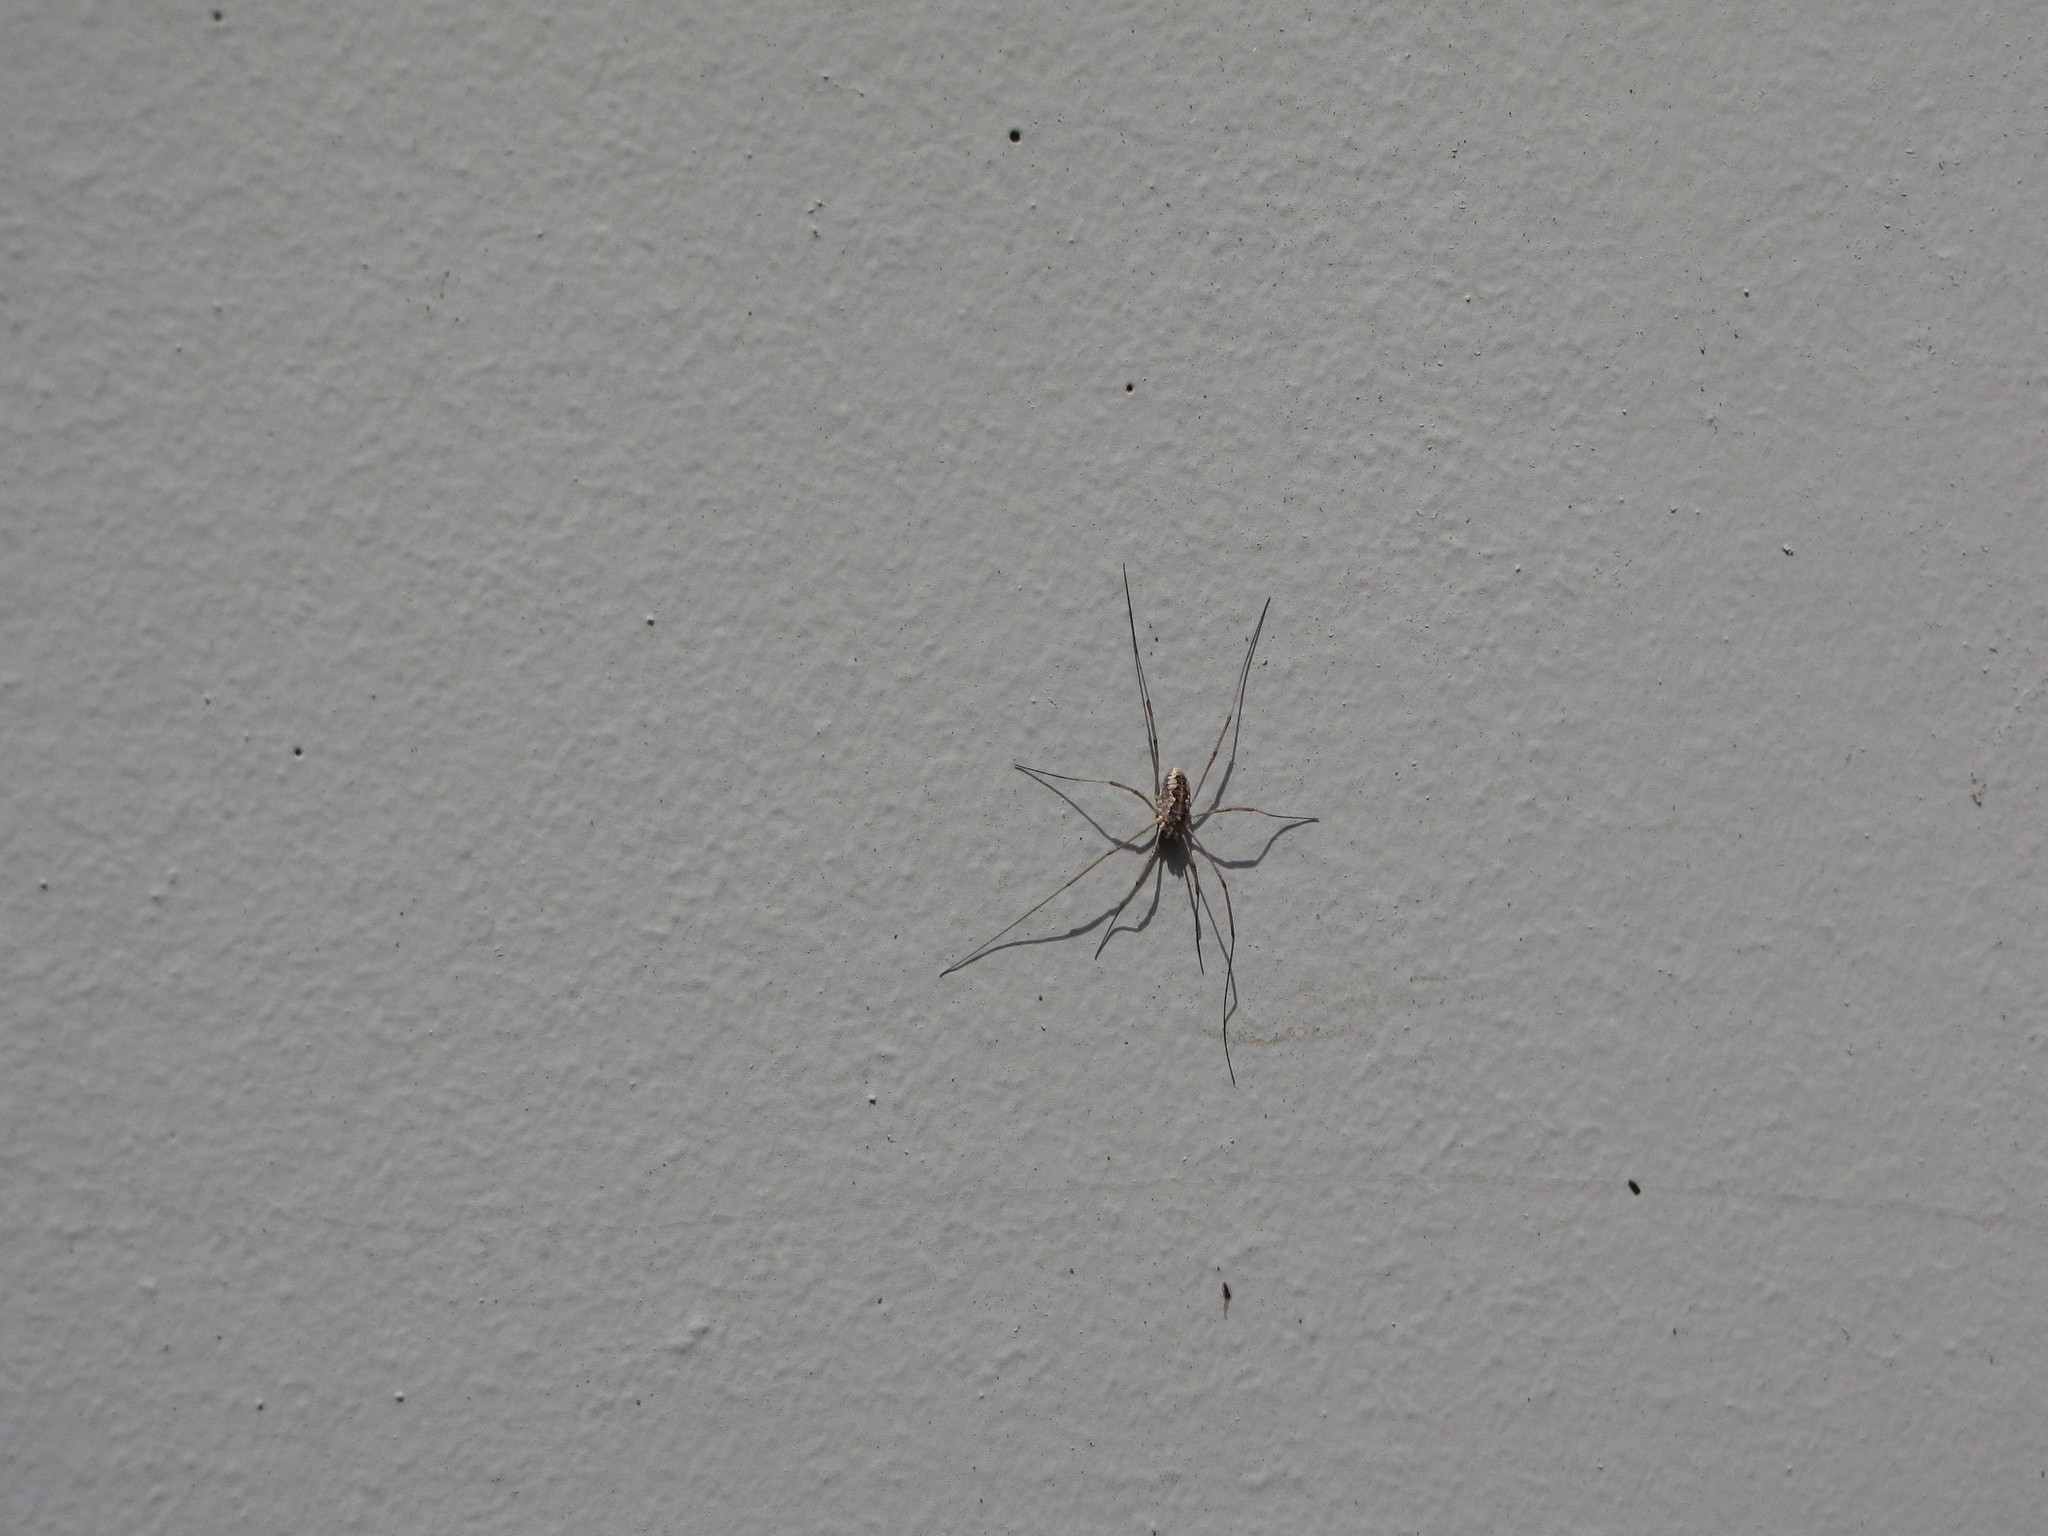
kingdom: Animalia
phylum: Arthropoda
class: Arachnida
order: Opiliones
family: Phalangiidae
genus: Phalangium
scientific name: Phalangium opilio
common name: Daddy longleg
